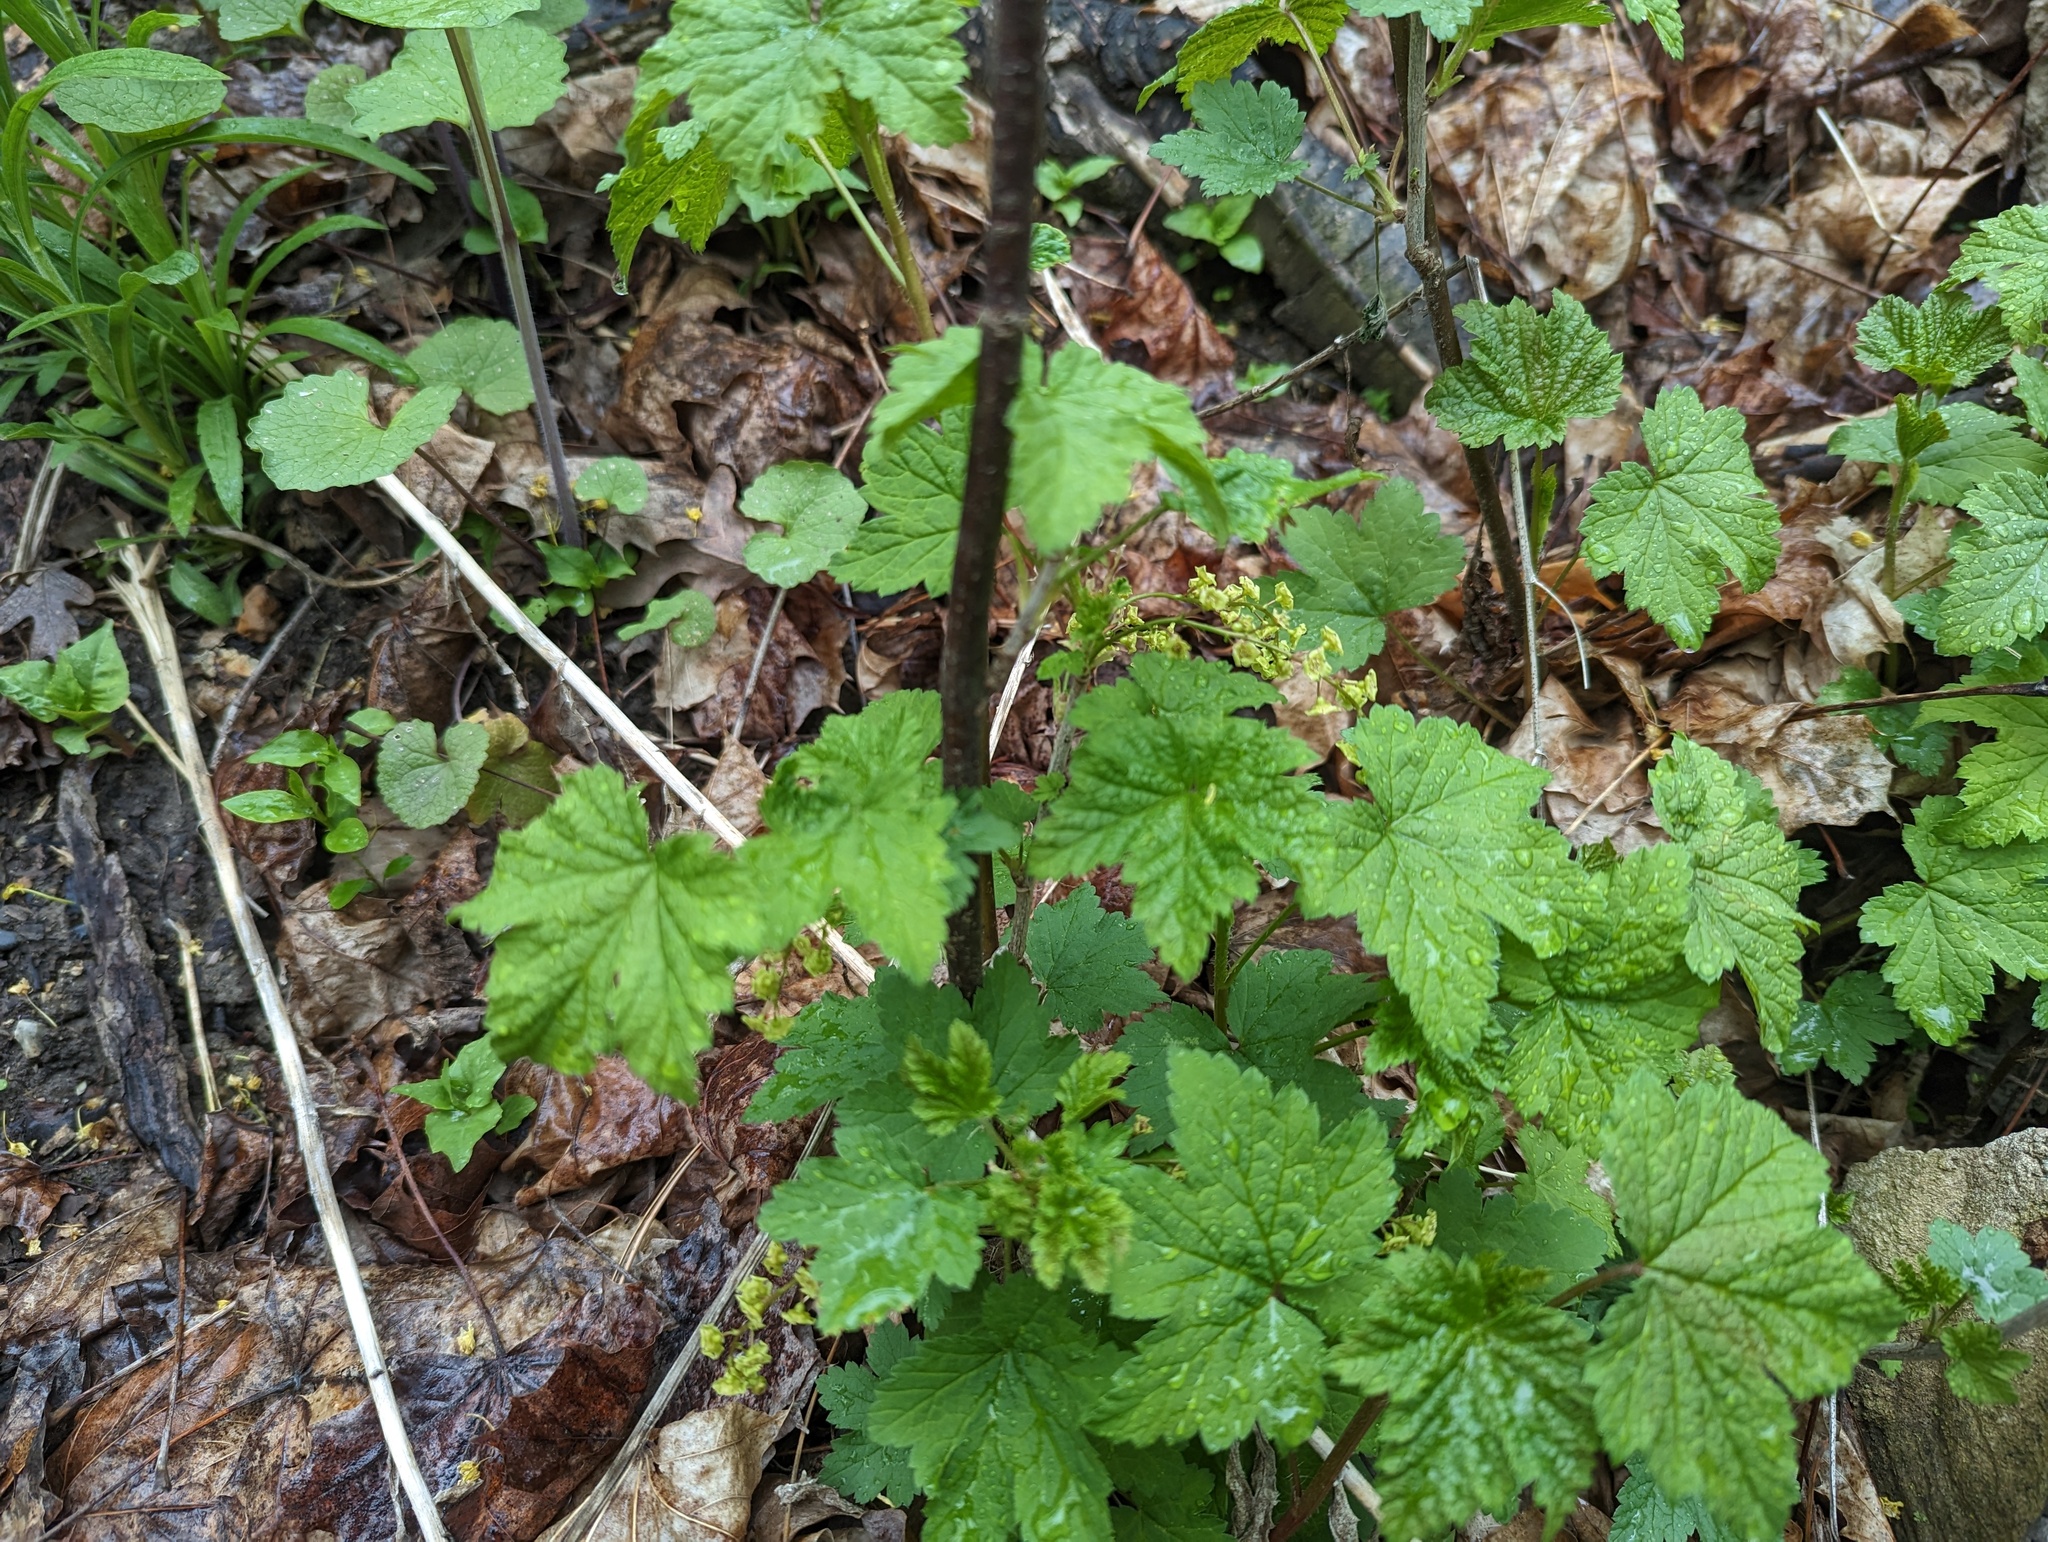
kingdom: Plantae
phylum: Tracheophyta
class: Magnoliopsida
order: Saxifragales
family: Grossulariaceae
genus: Ribes
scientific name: Ribes rubrum
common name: Red currant
